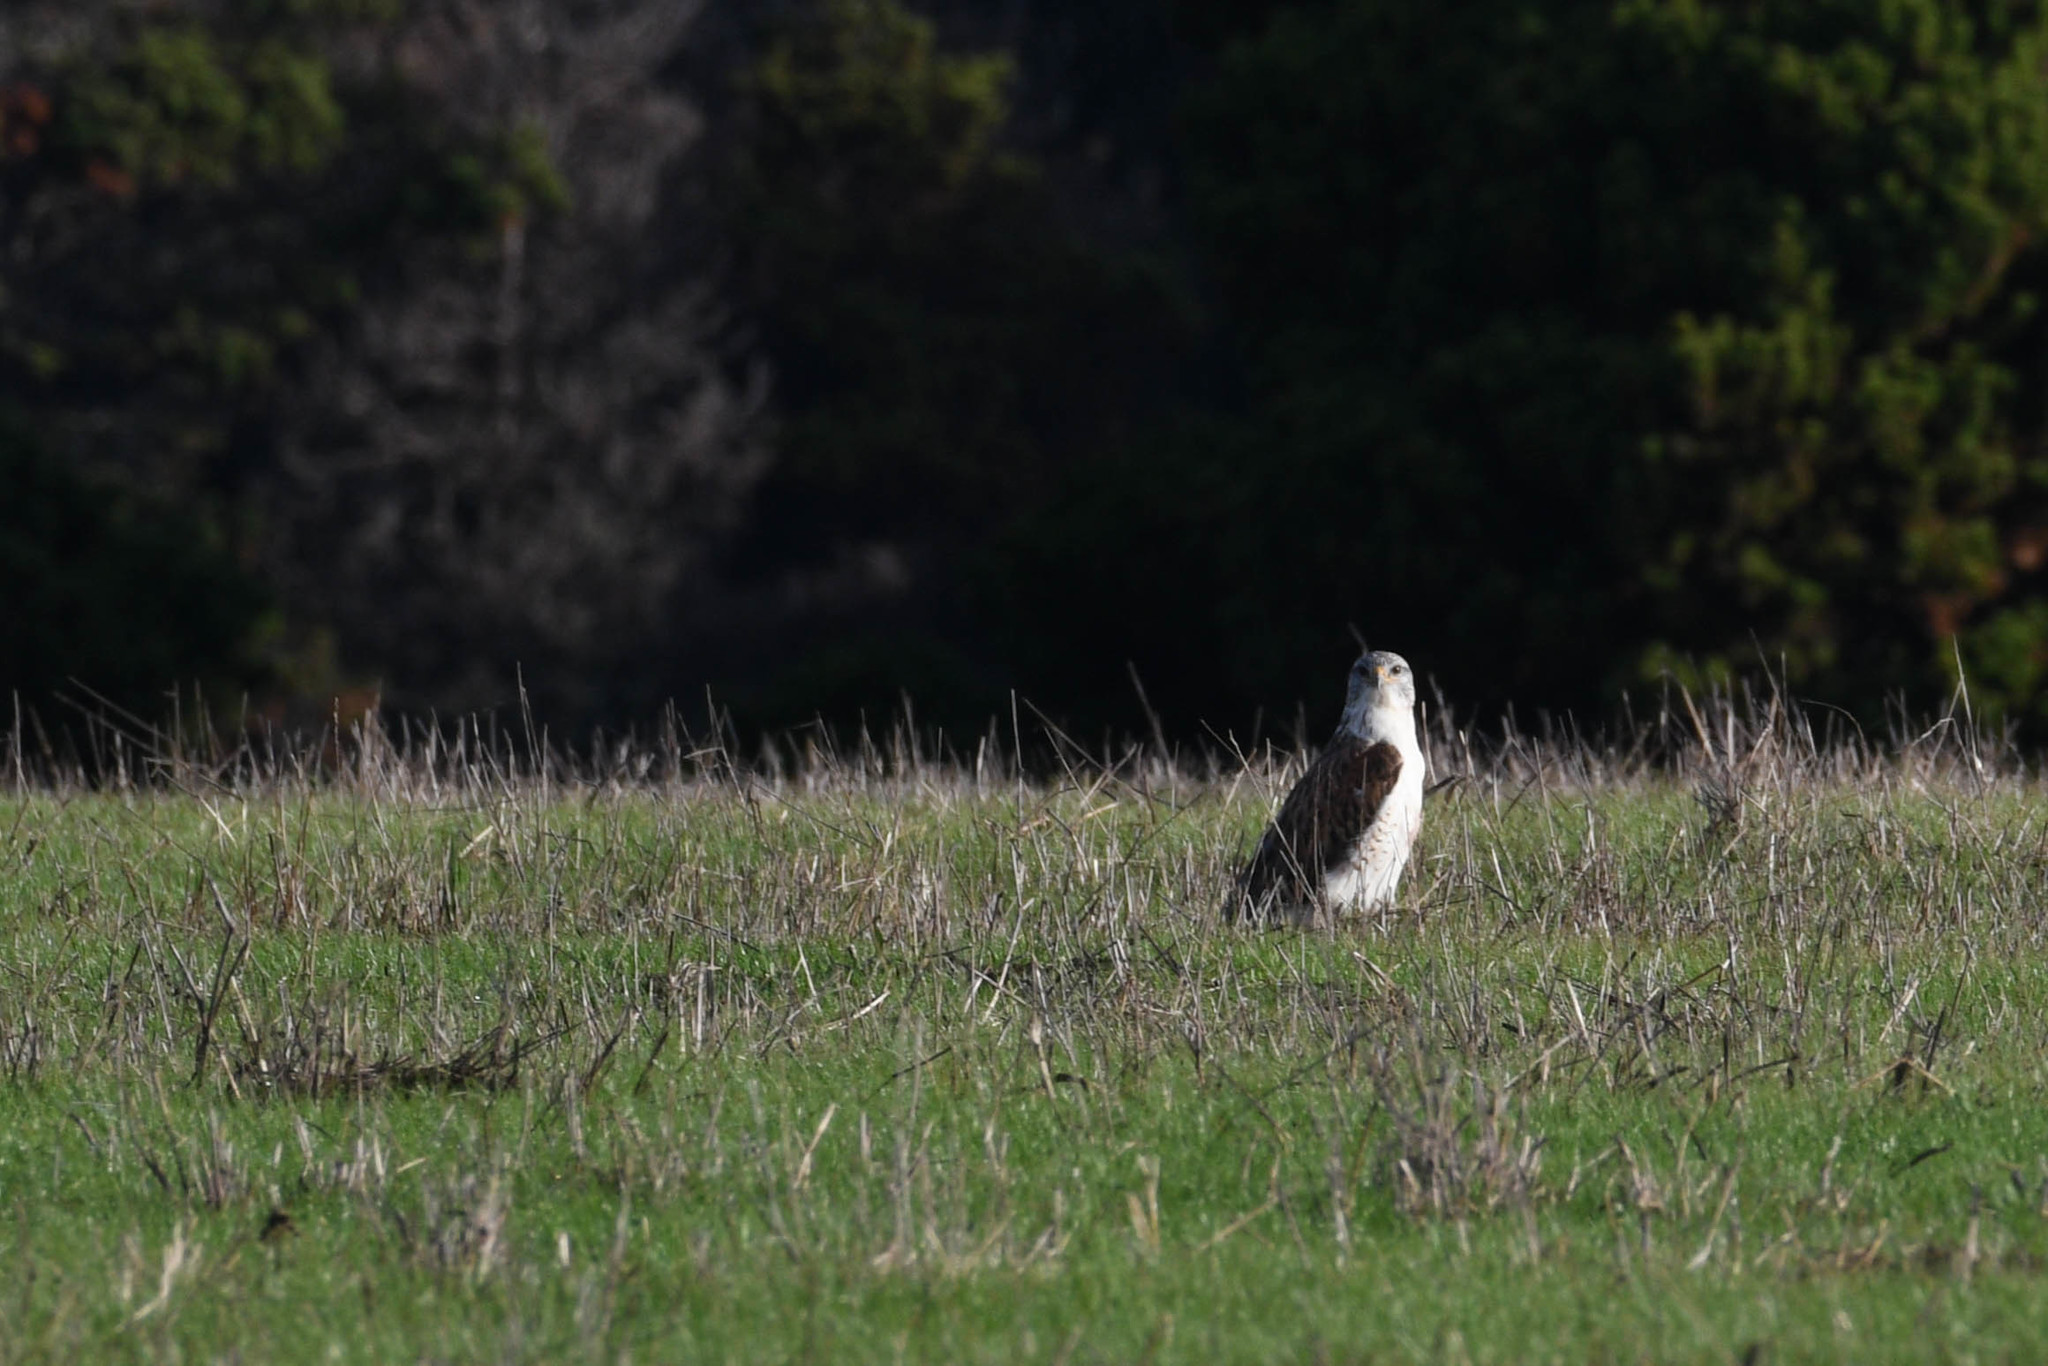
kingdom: Animalia
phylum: Chordata
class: Aves
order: Accipitriformes
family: Accipitridae
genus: Buteo
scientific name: Buteo regalis
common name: Ferruginous hawk
